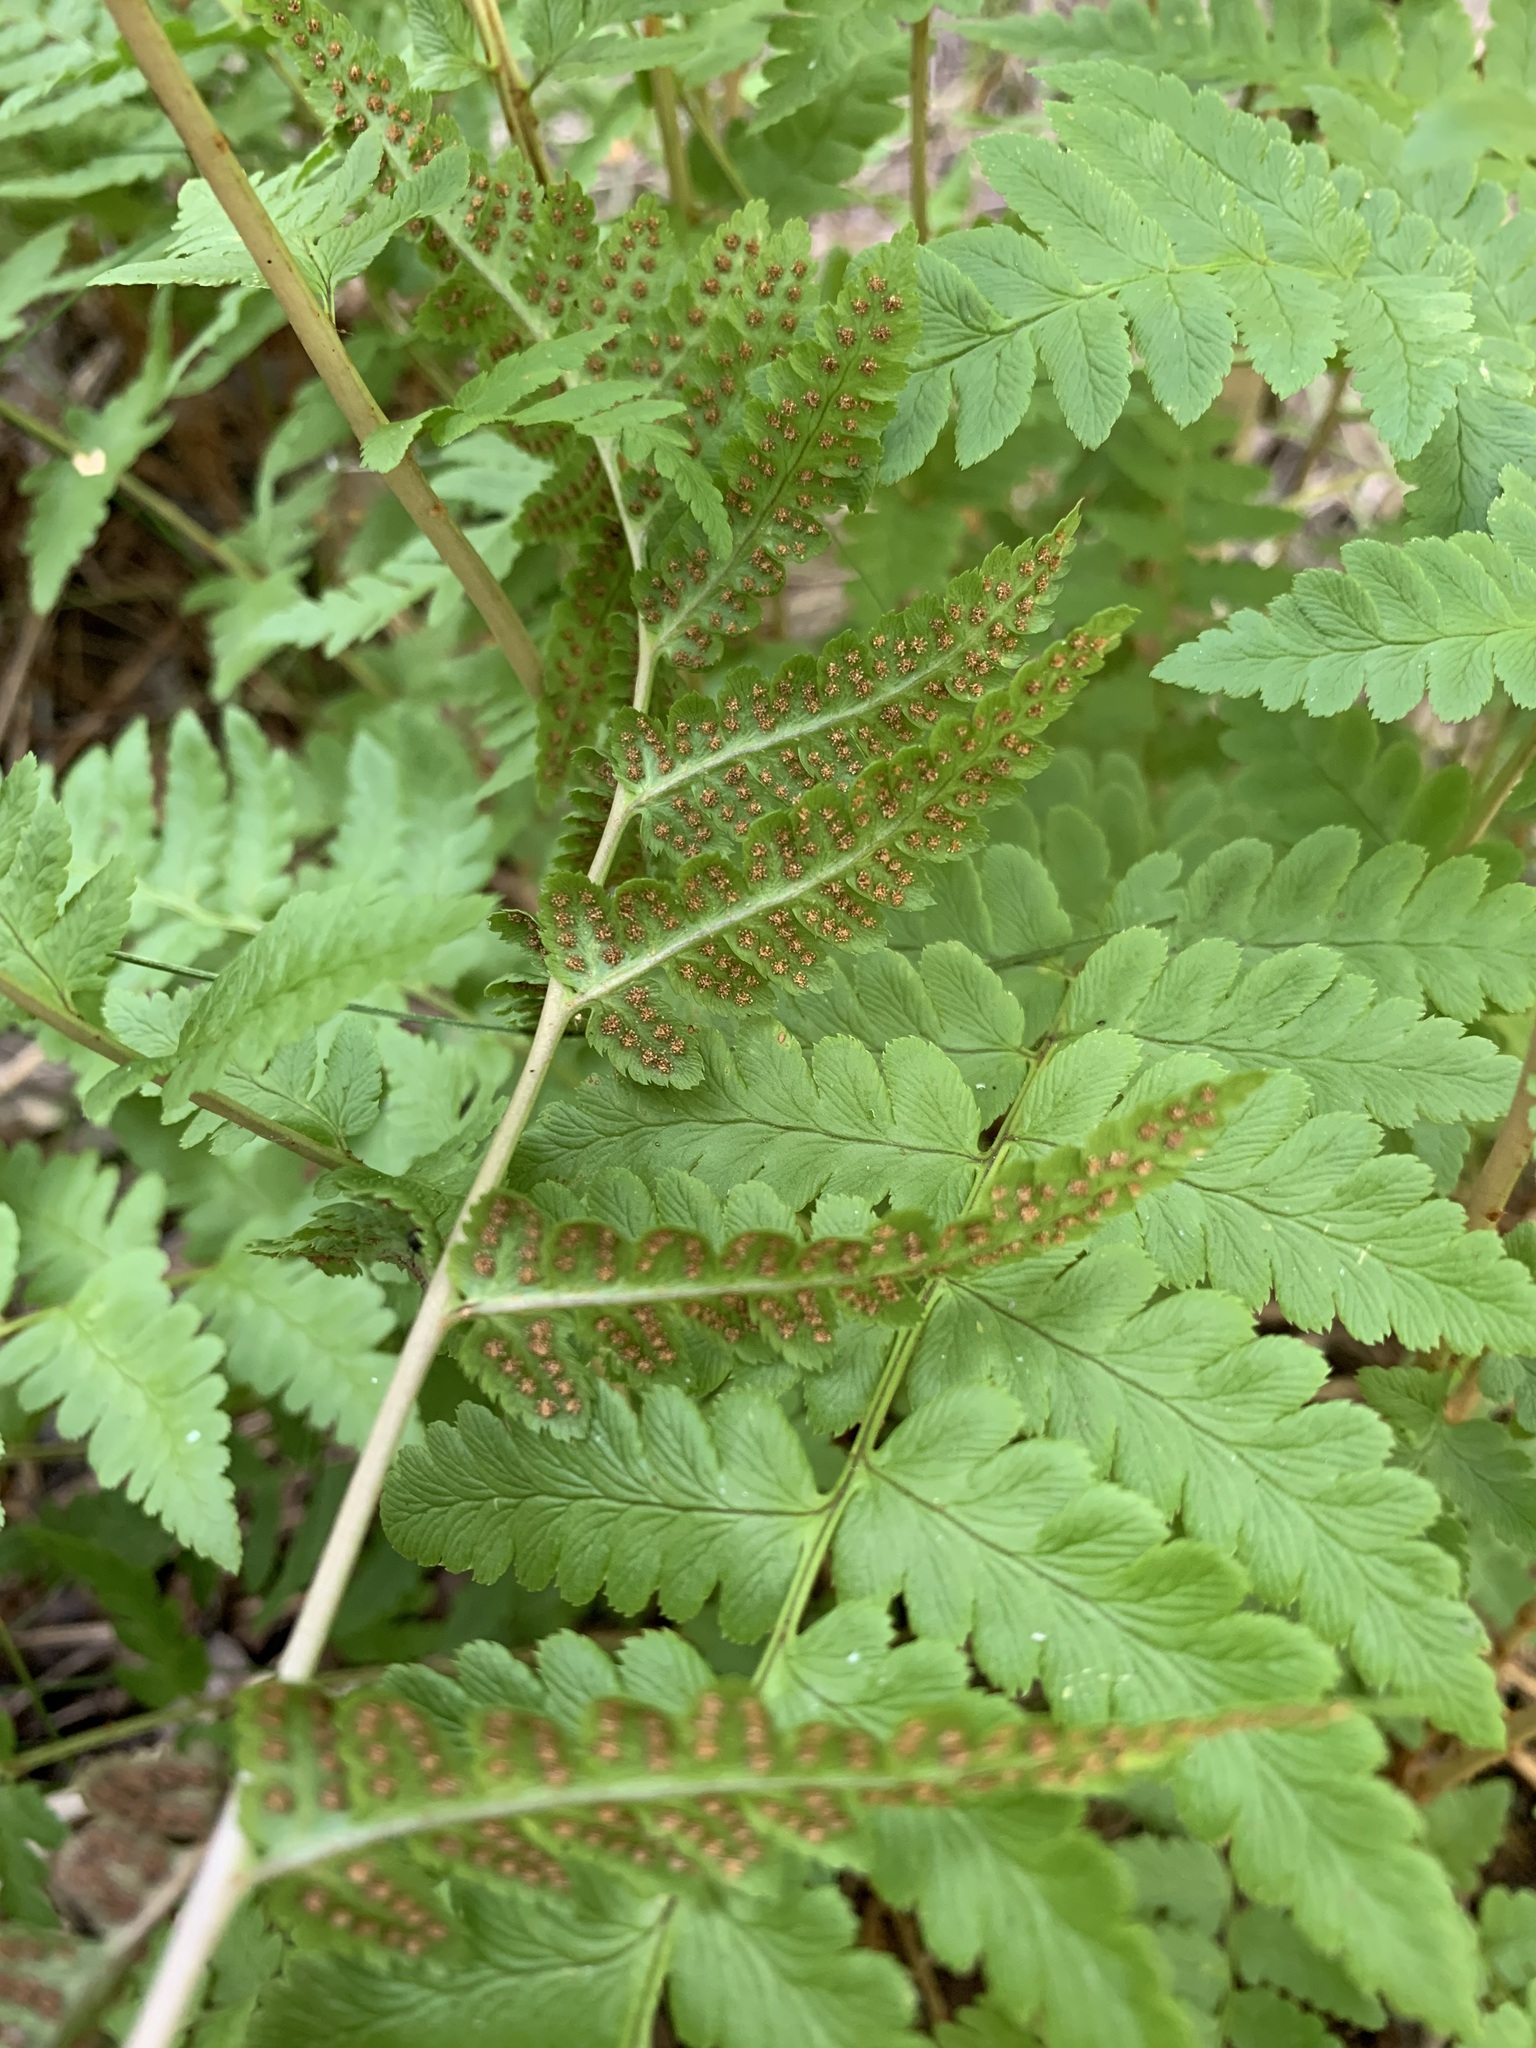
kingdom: Plantae
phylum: Tracheophyta
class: Polypodiopsida
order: Polypodiales
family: Dryopteridaceae
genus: Dryopteris
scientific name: Dryopteris cristata
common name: Crested wood fern
